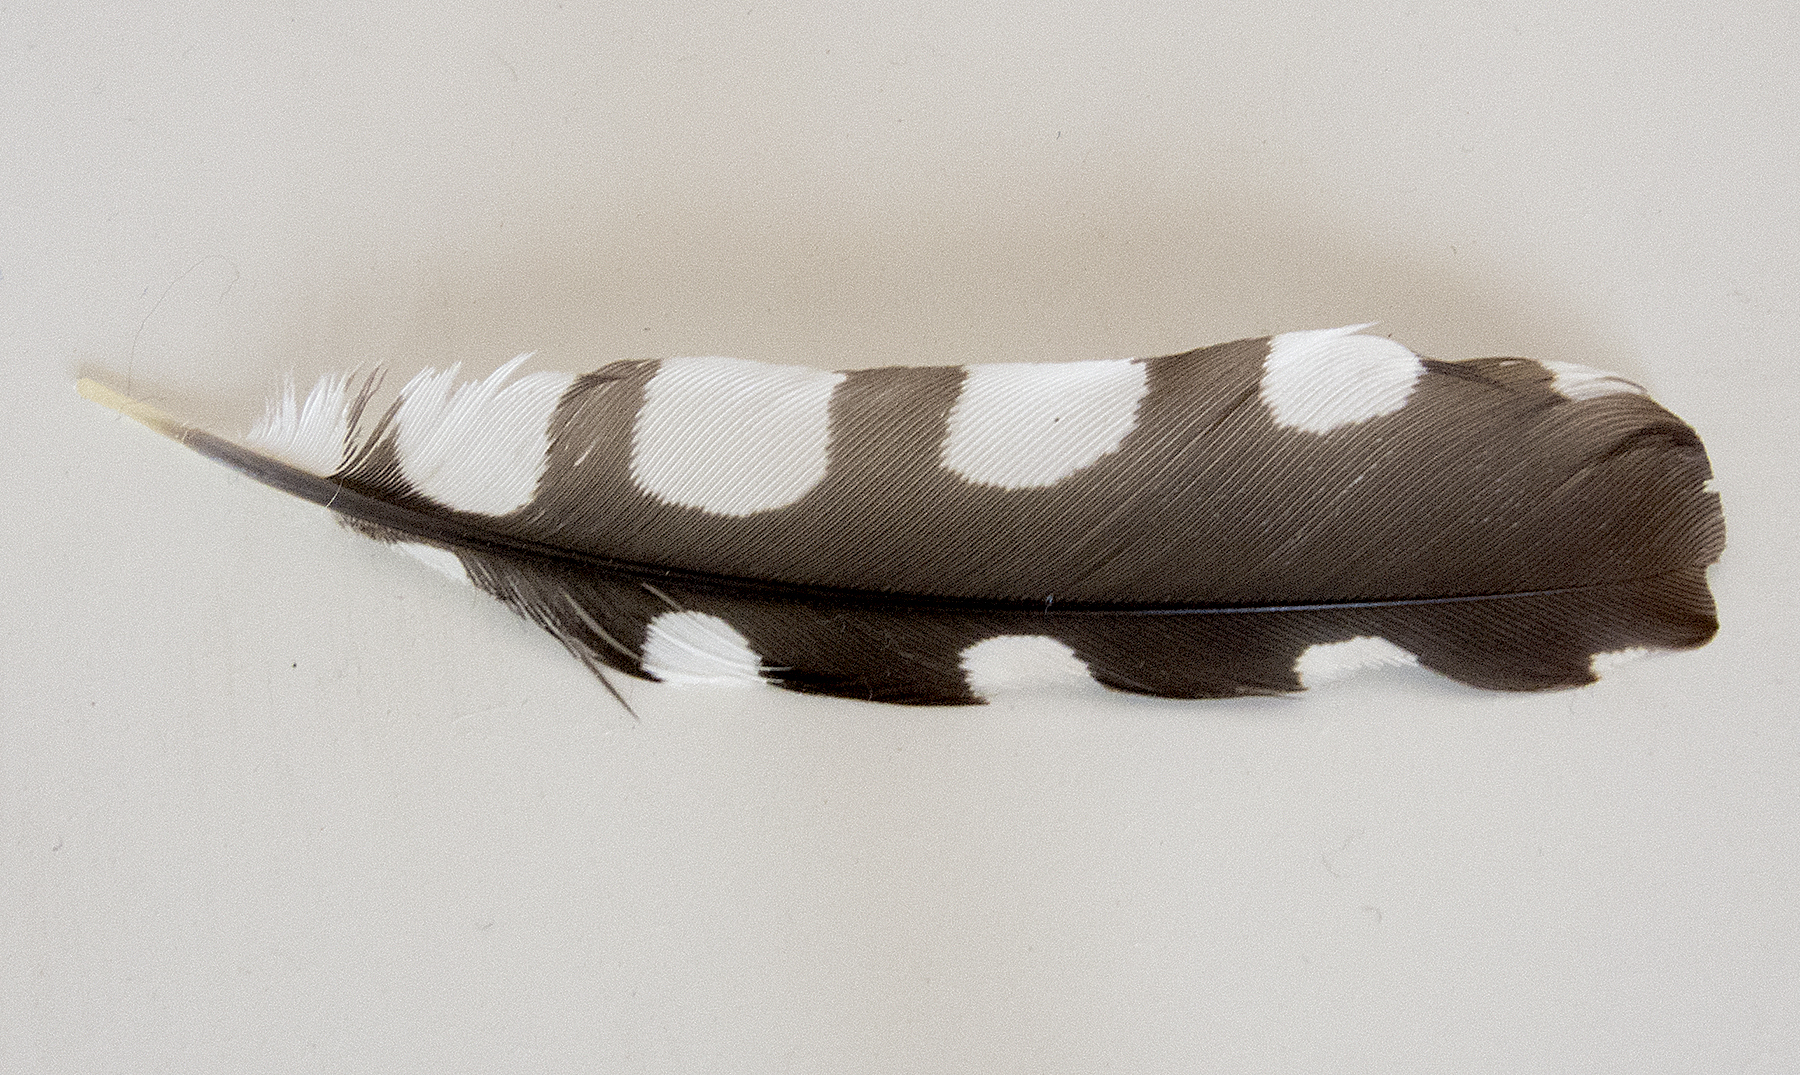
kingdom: Animalia
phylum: Chordata
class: Aves
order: Piciformes
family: Picidae
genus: Dendrocoptes
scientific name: Dendrocoptes medius
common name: Middle spotted woodpecker
